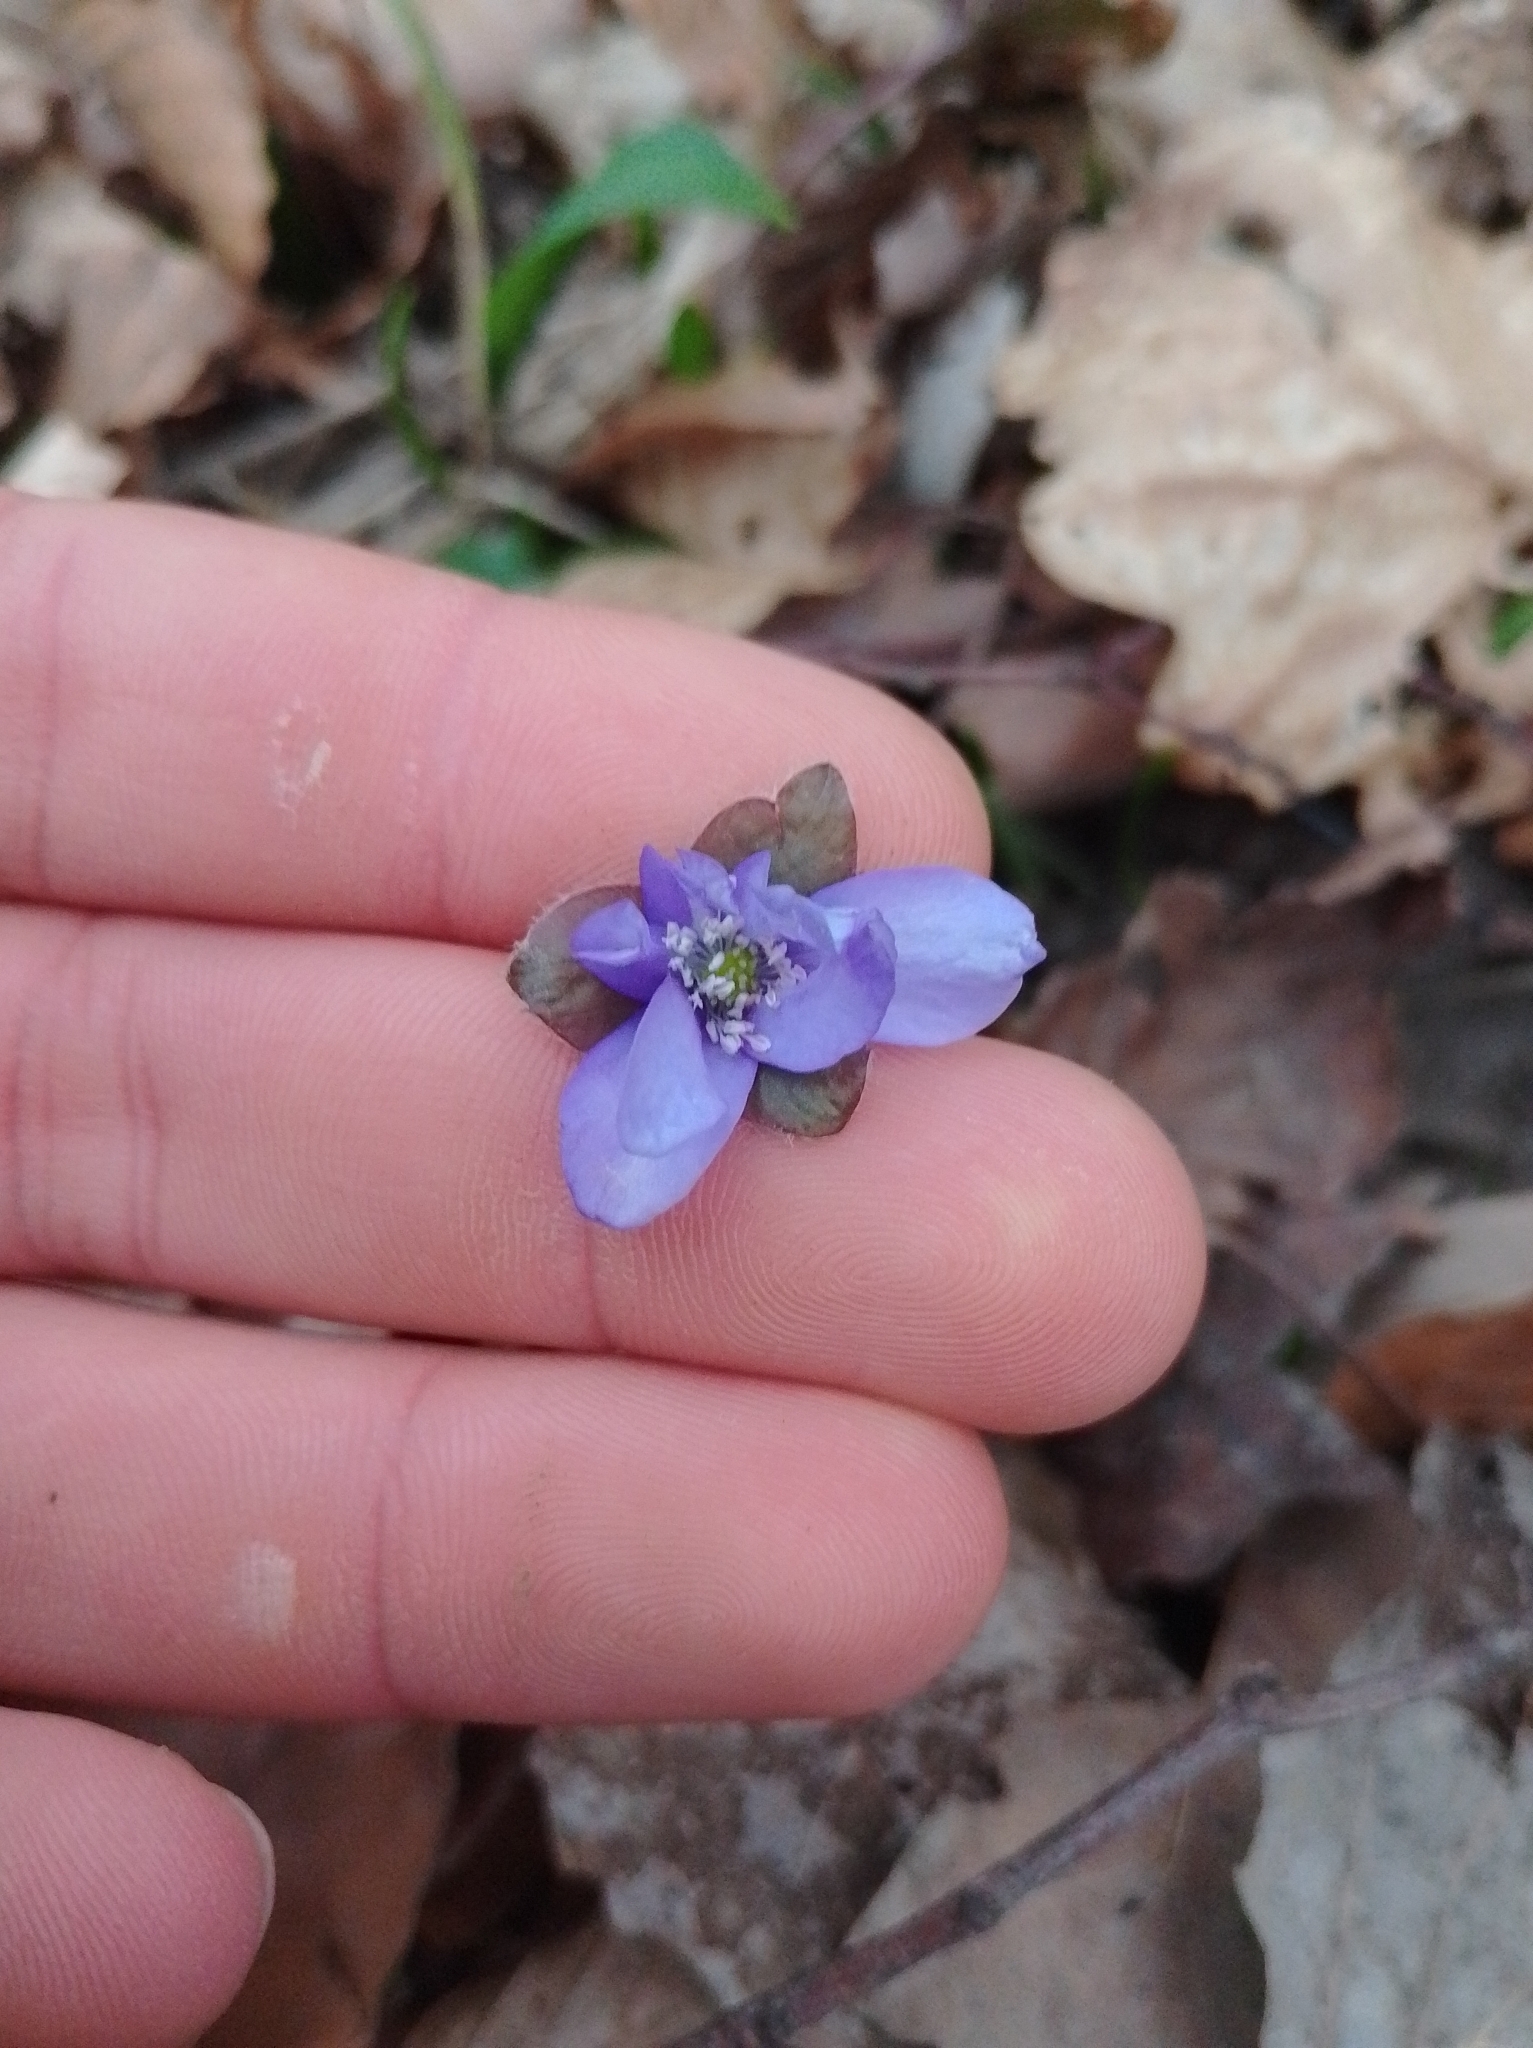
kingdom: Plantae
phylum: Tracheophyta
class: Magnoliopsida
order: Ranunculales
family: Ranunculaceae
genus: Hepatica
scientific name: Hepatica nobilis
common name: Liverleaf
